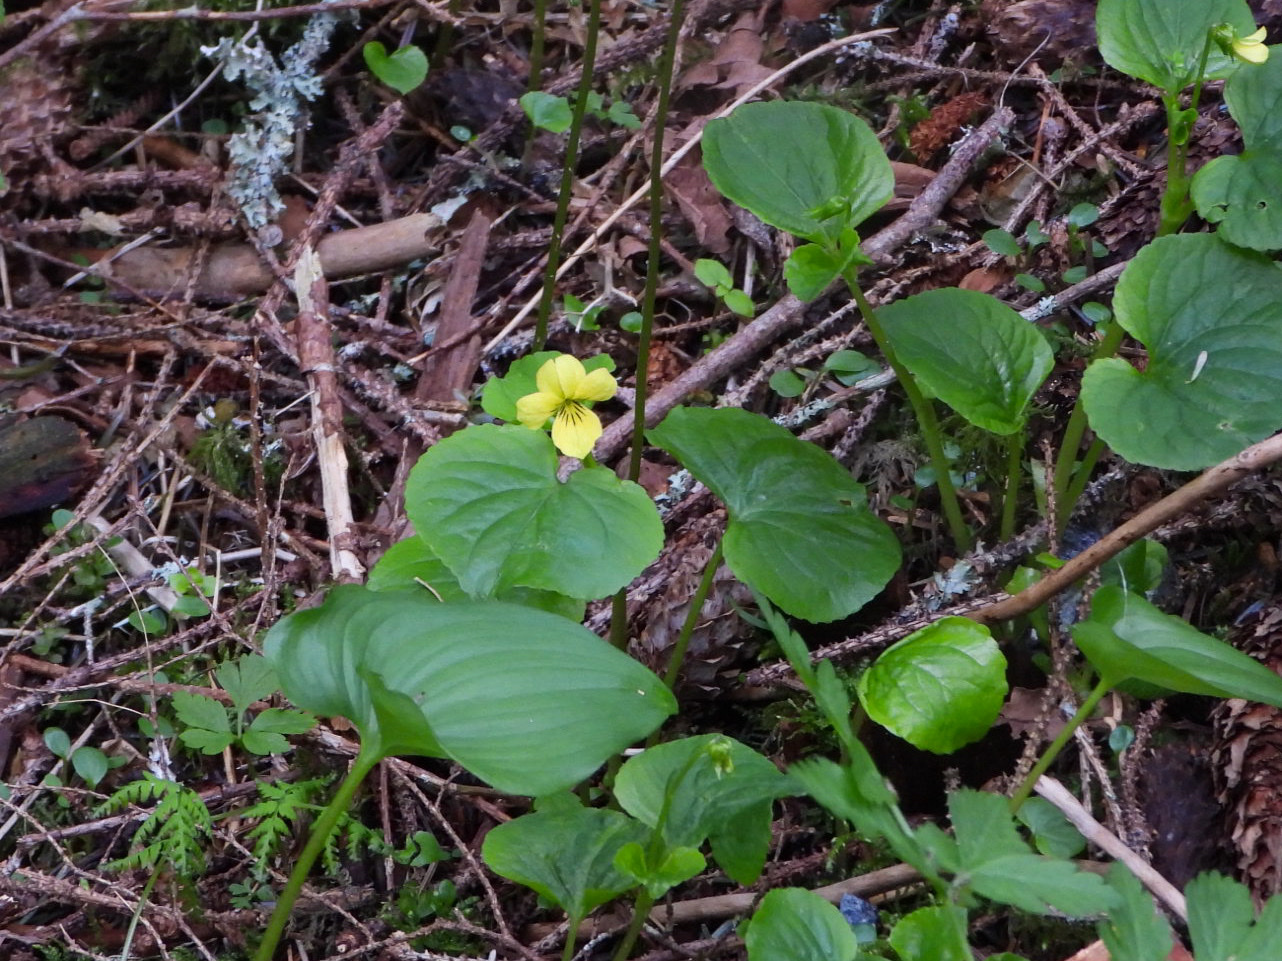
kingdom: Plantae
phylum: Tracheophyta
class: Magnoliopsida
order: Malpighiales
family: Violaceae
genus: Viola
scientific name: Viola glabella
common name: Stream violet
